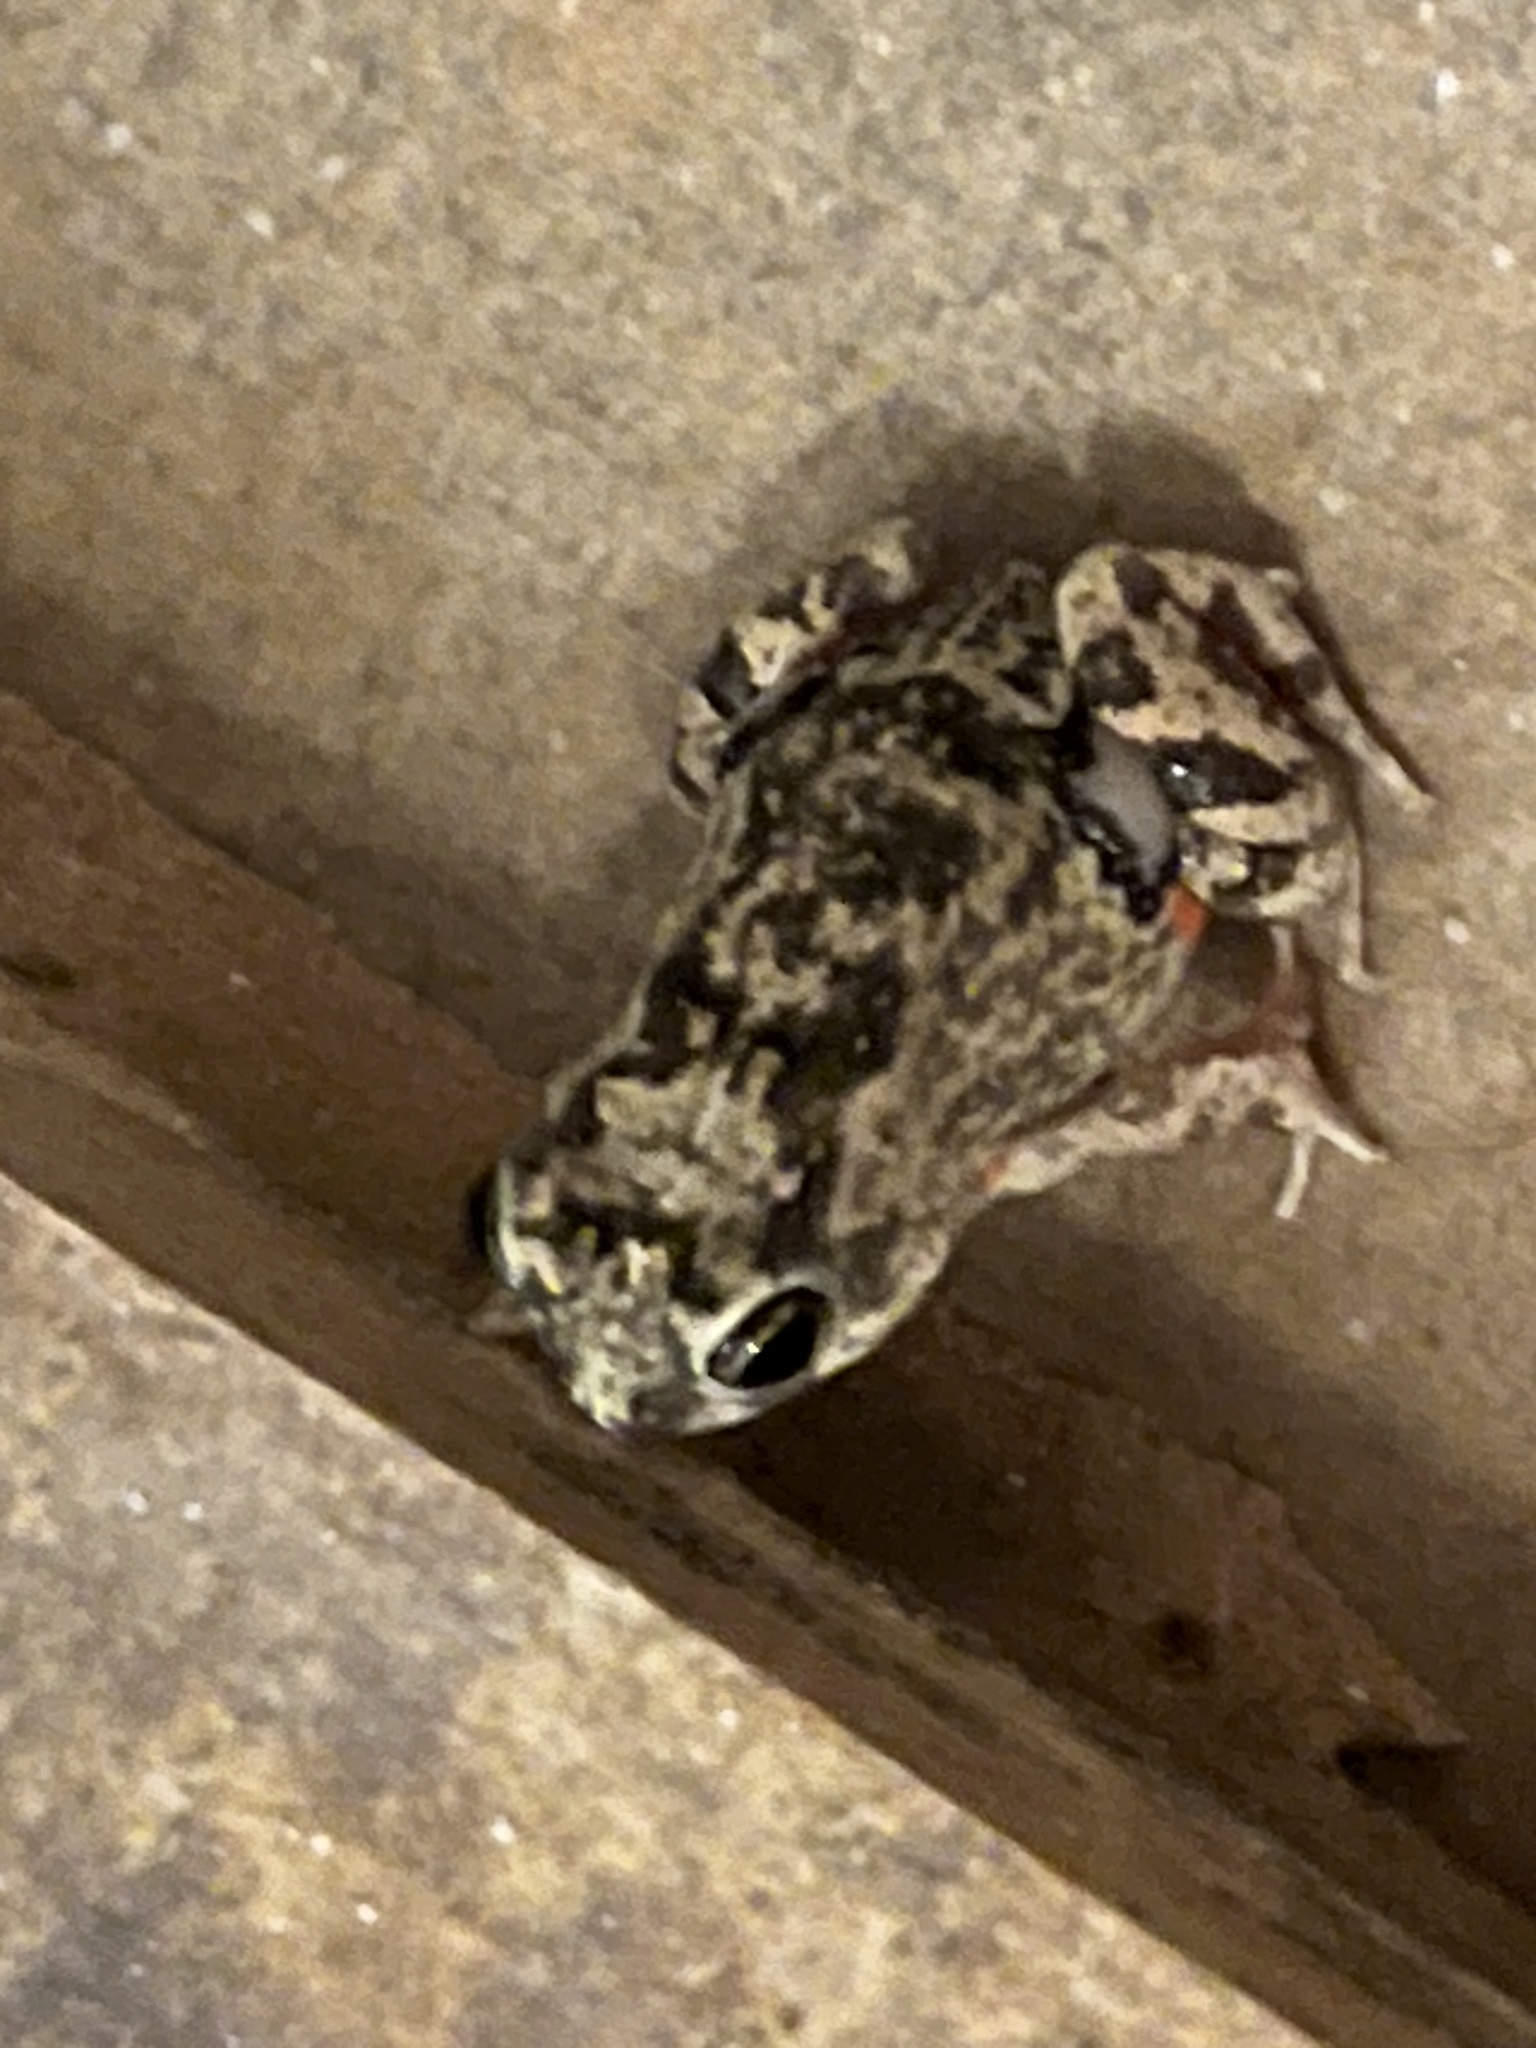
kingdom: Animalia
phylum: Chordata
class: Amphibia
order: Anura
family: Leptodactylidae
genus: Pleurodema
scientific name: Pleurodema brachyops
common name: Colombian four-eyed frog
